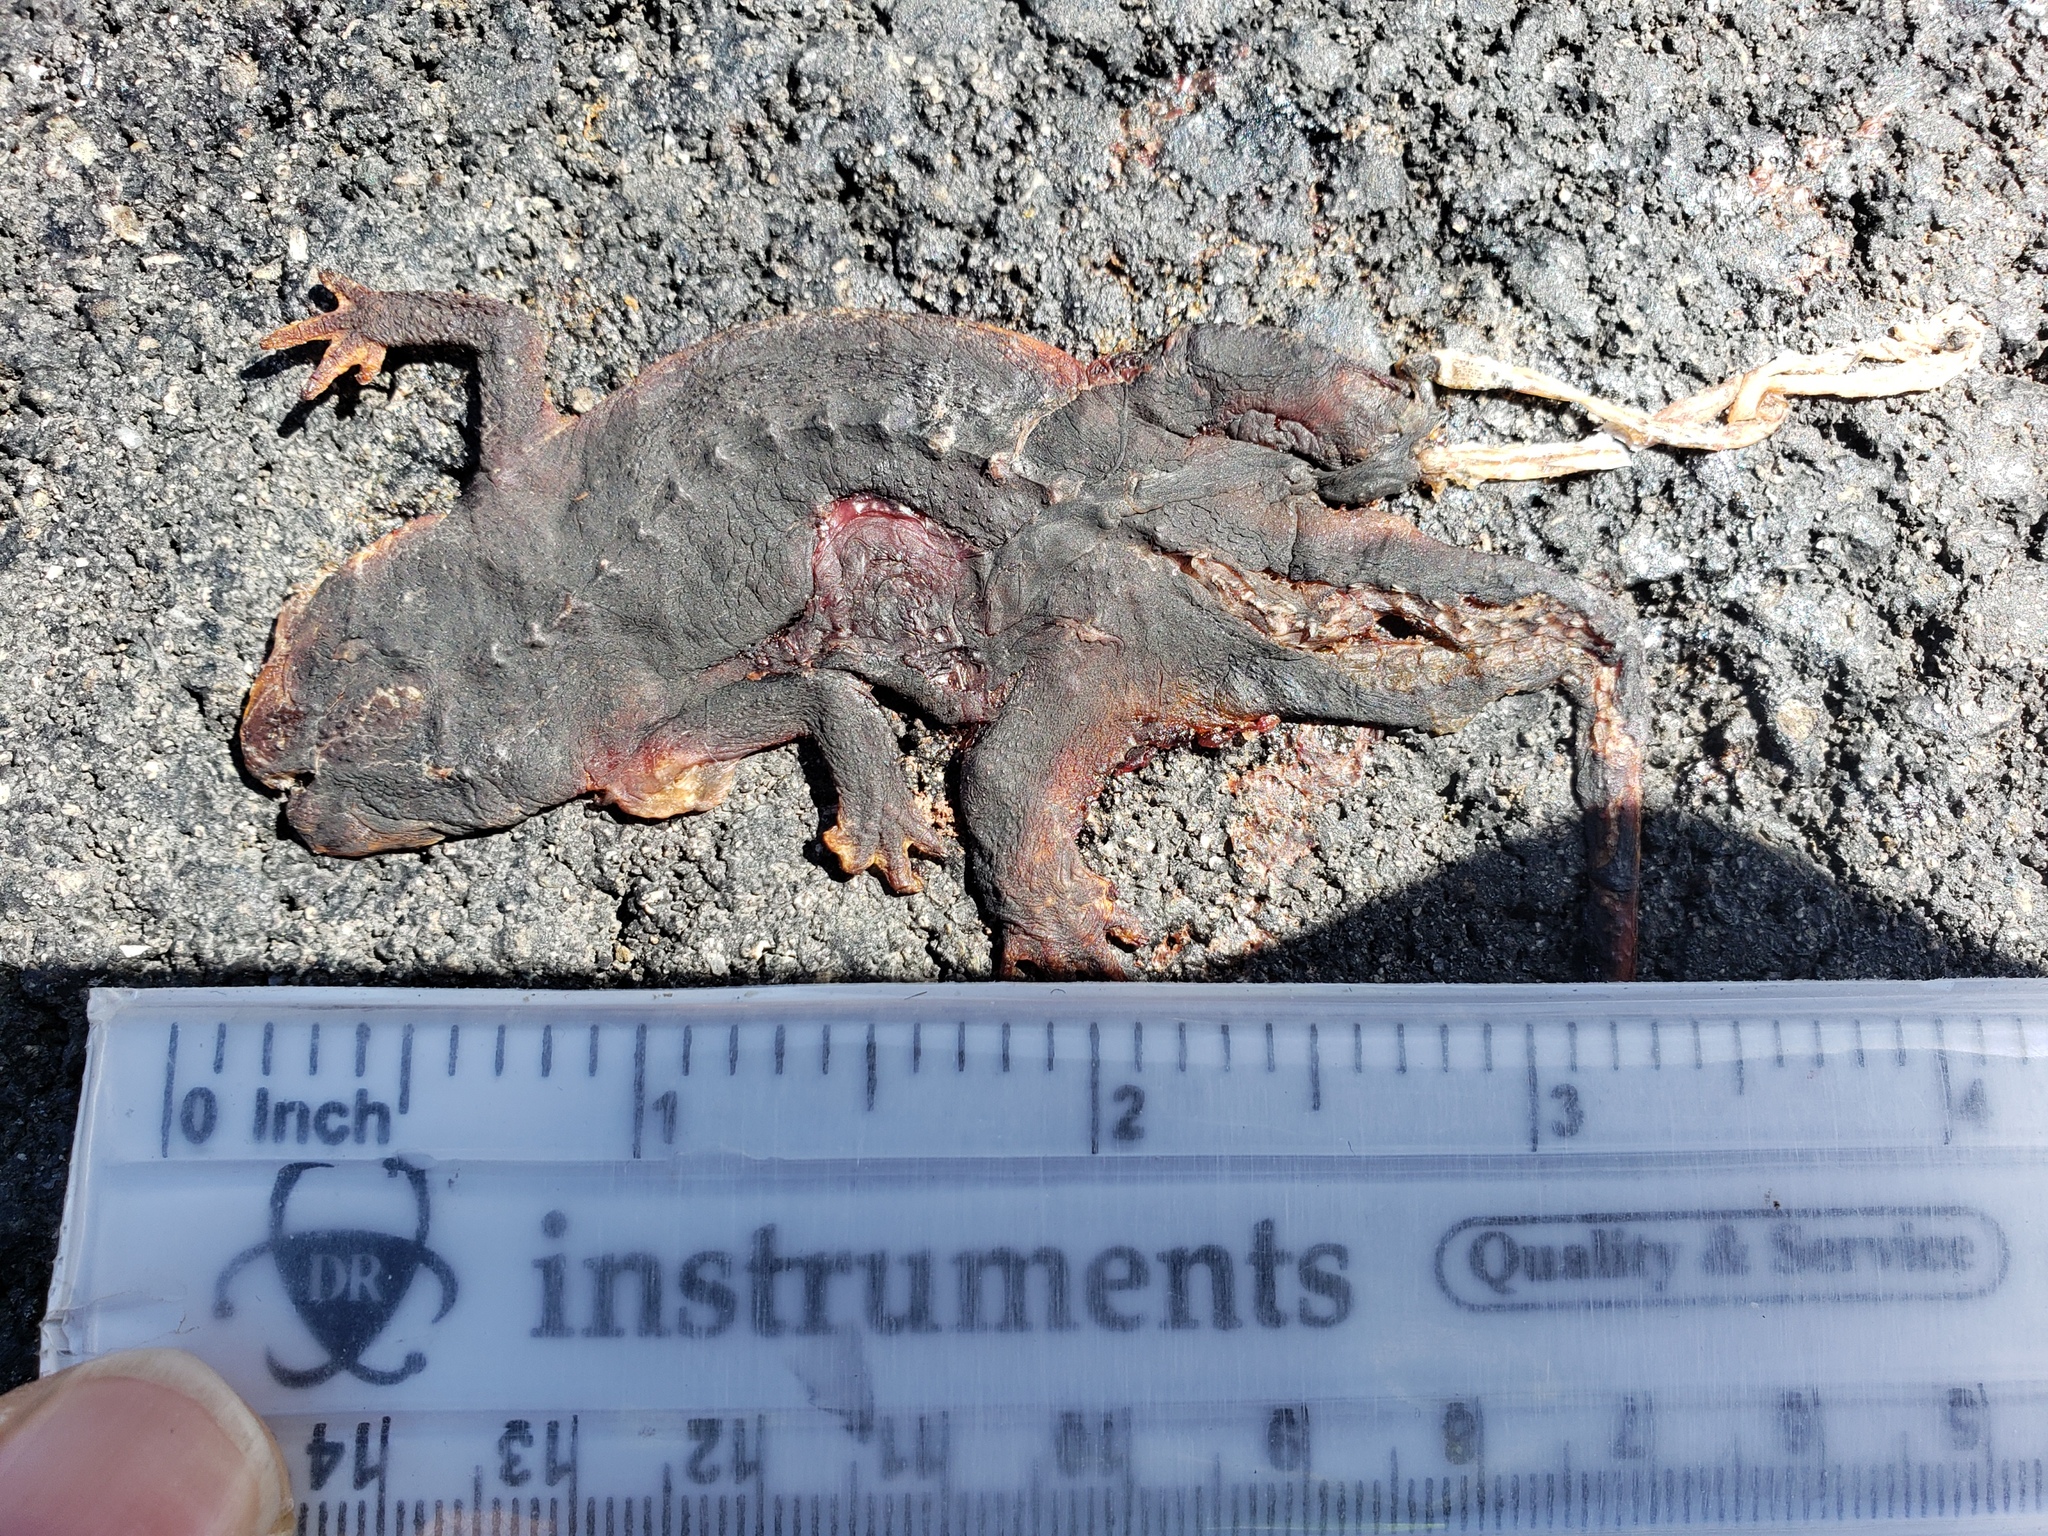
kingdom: Animalia
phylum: Chordata
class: Amphibia
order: Caudata
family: Salamandridae
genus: Taricha
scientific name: Taricha
